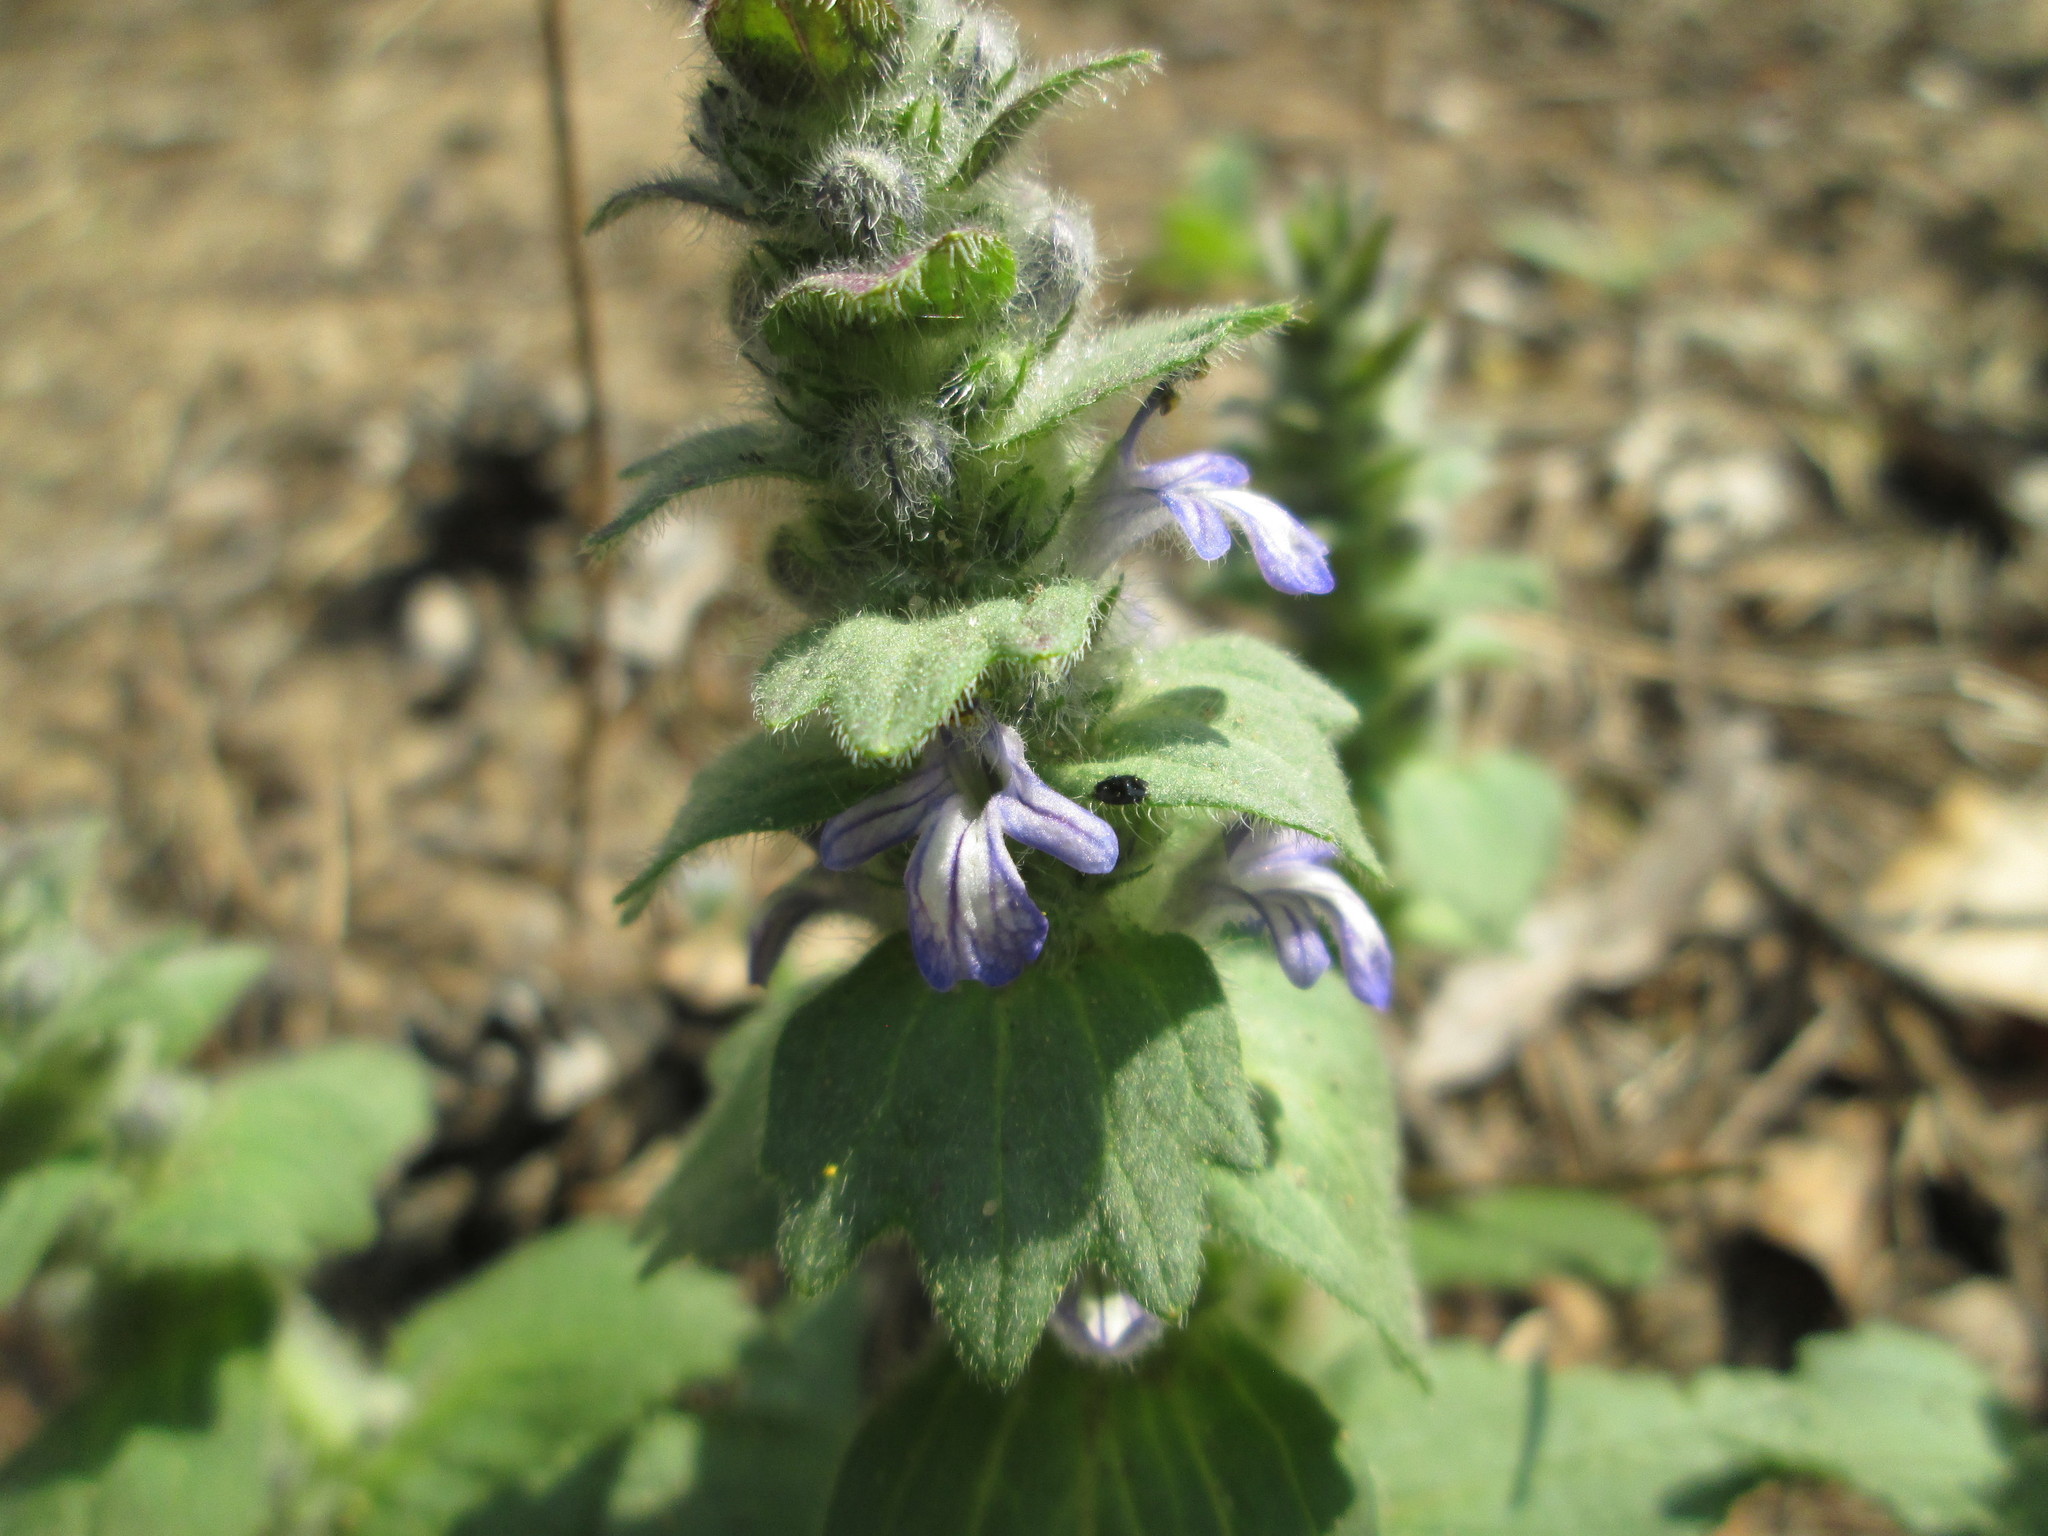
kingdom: Plantae
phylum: Tracheophyta
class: Magnoliopsida
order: Lamiales
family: Lamiaceae
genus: Ajuga
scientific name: Ajuga genevensis
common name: Blue bugle
